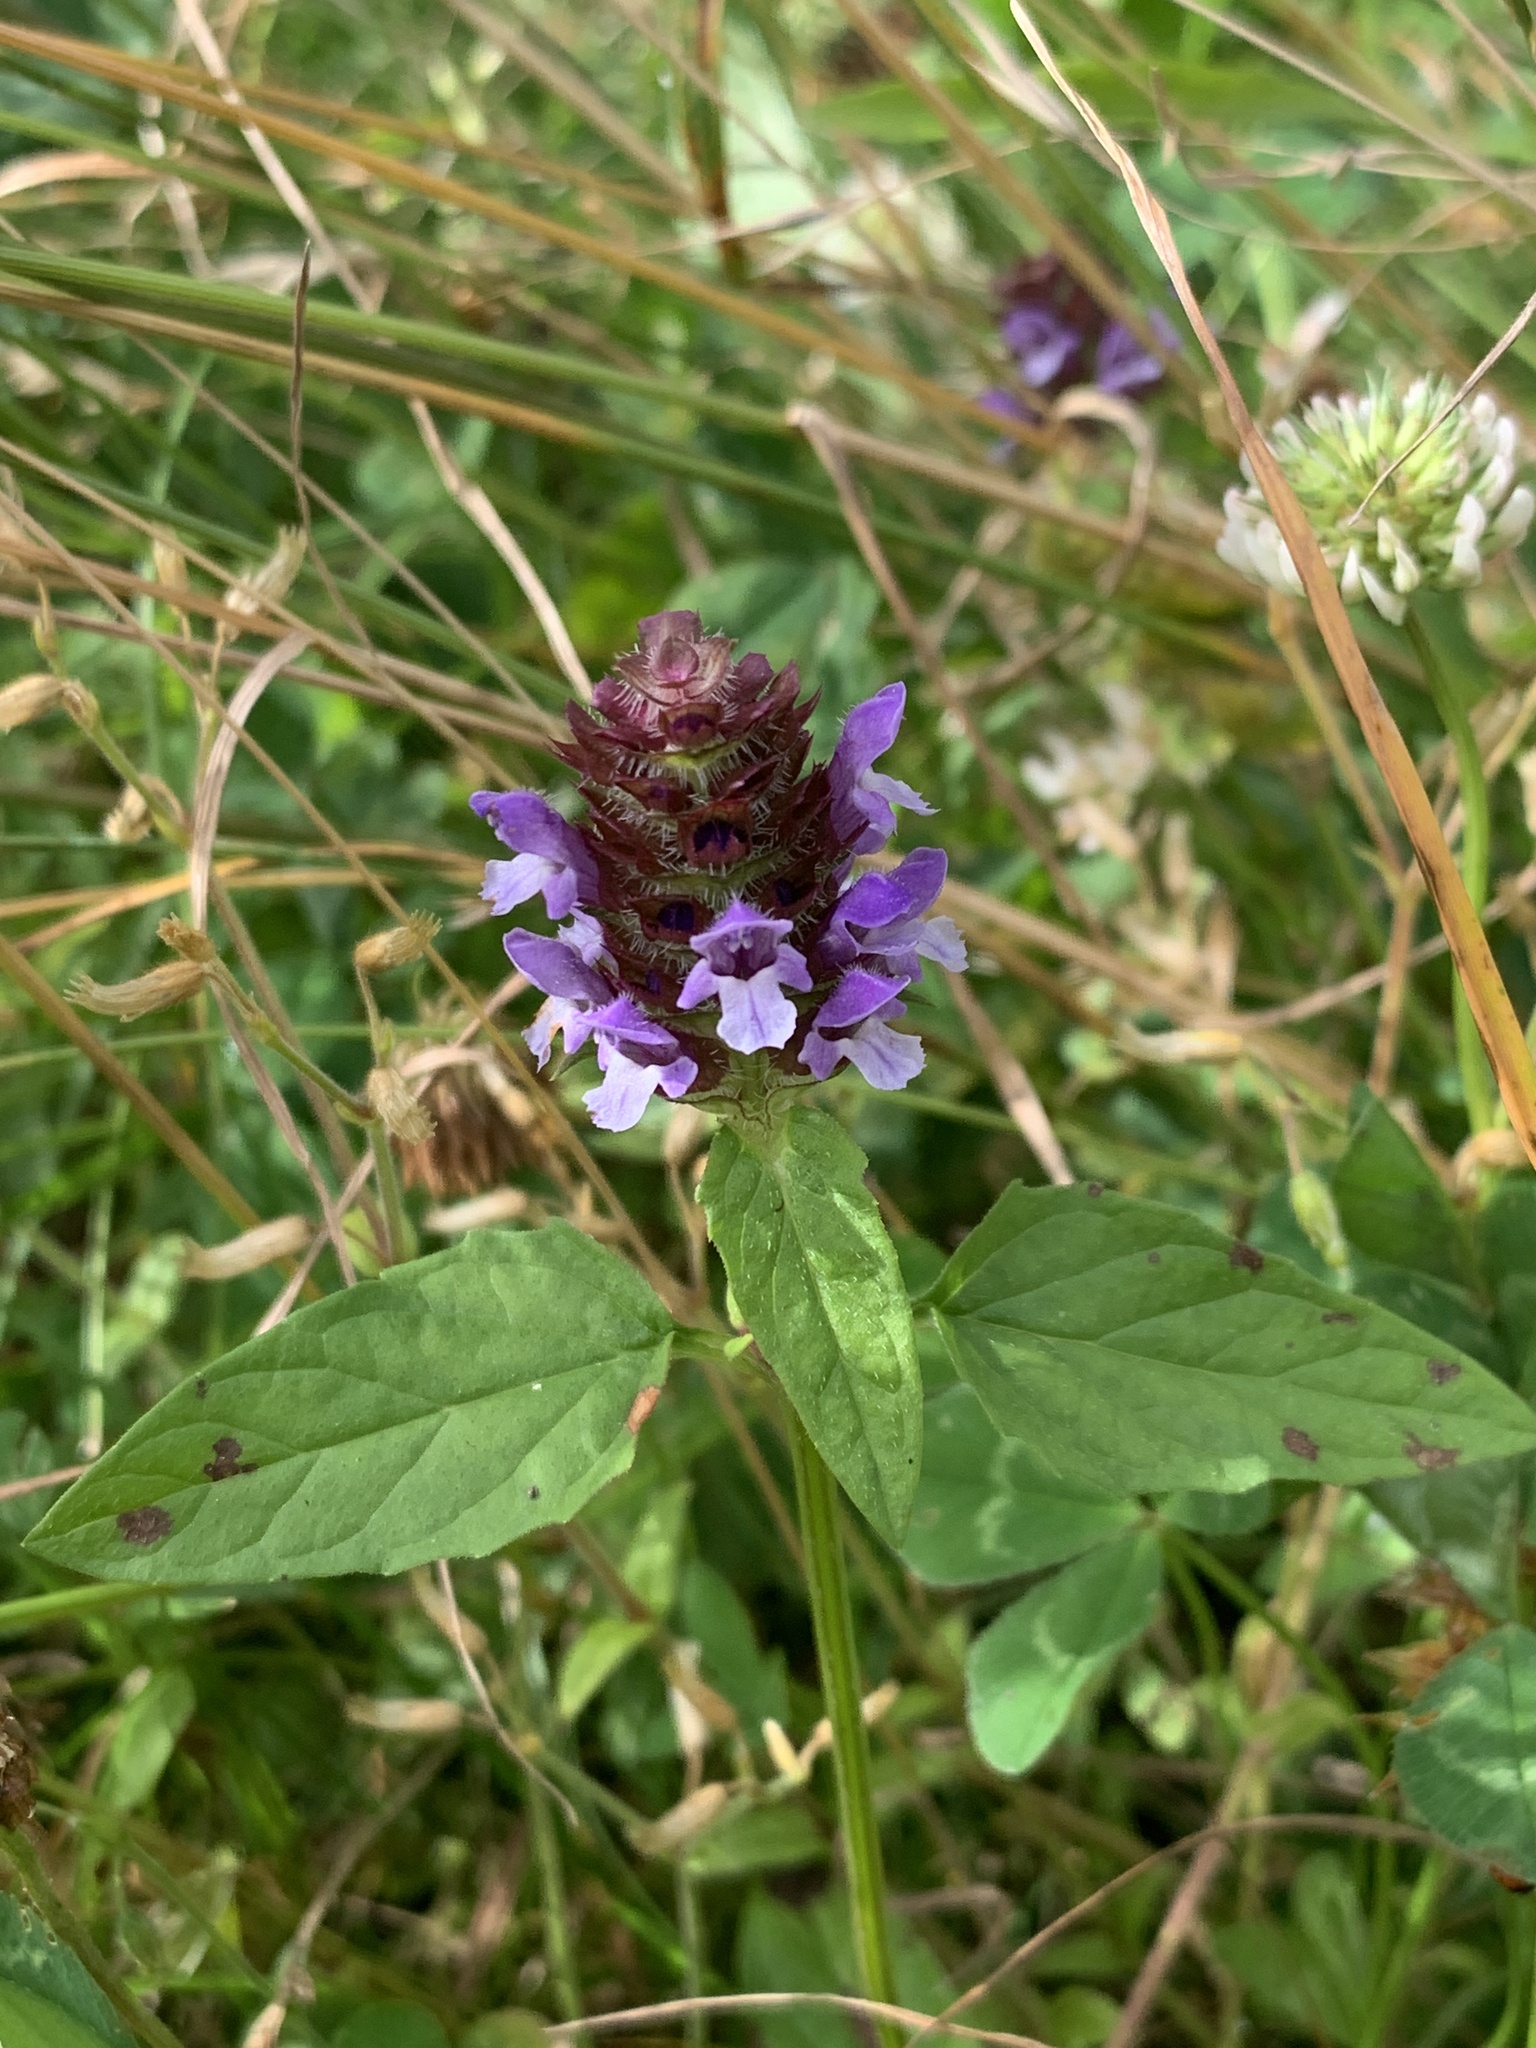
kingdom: Plantae
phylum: Tracheophyta
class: Magnoliopsida
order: Lamiales
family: Lamiaceae
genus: Prunella
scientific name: Prunella vulgaris
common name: Heal-all
